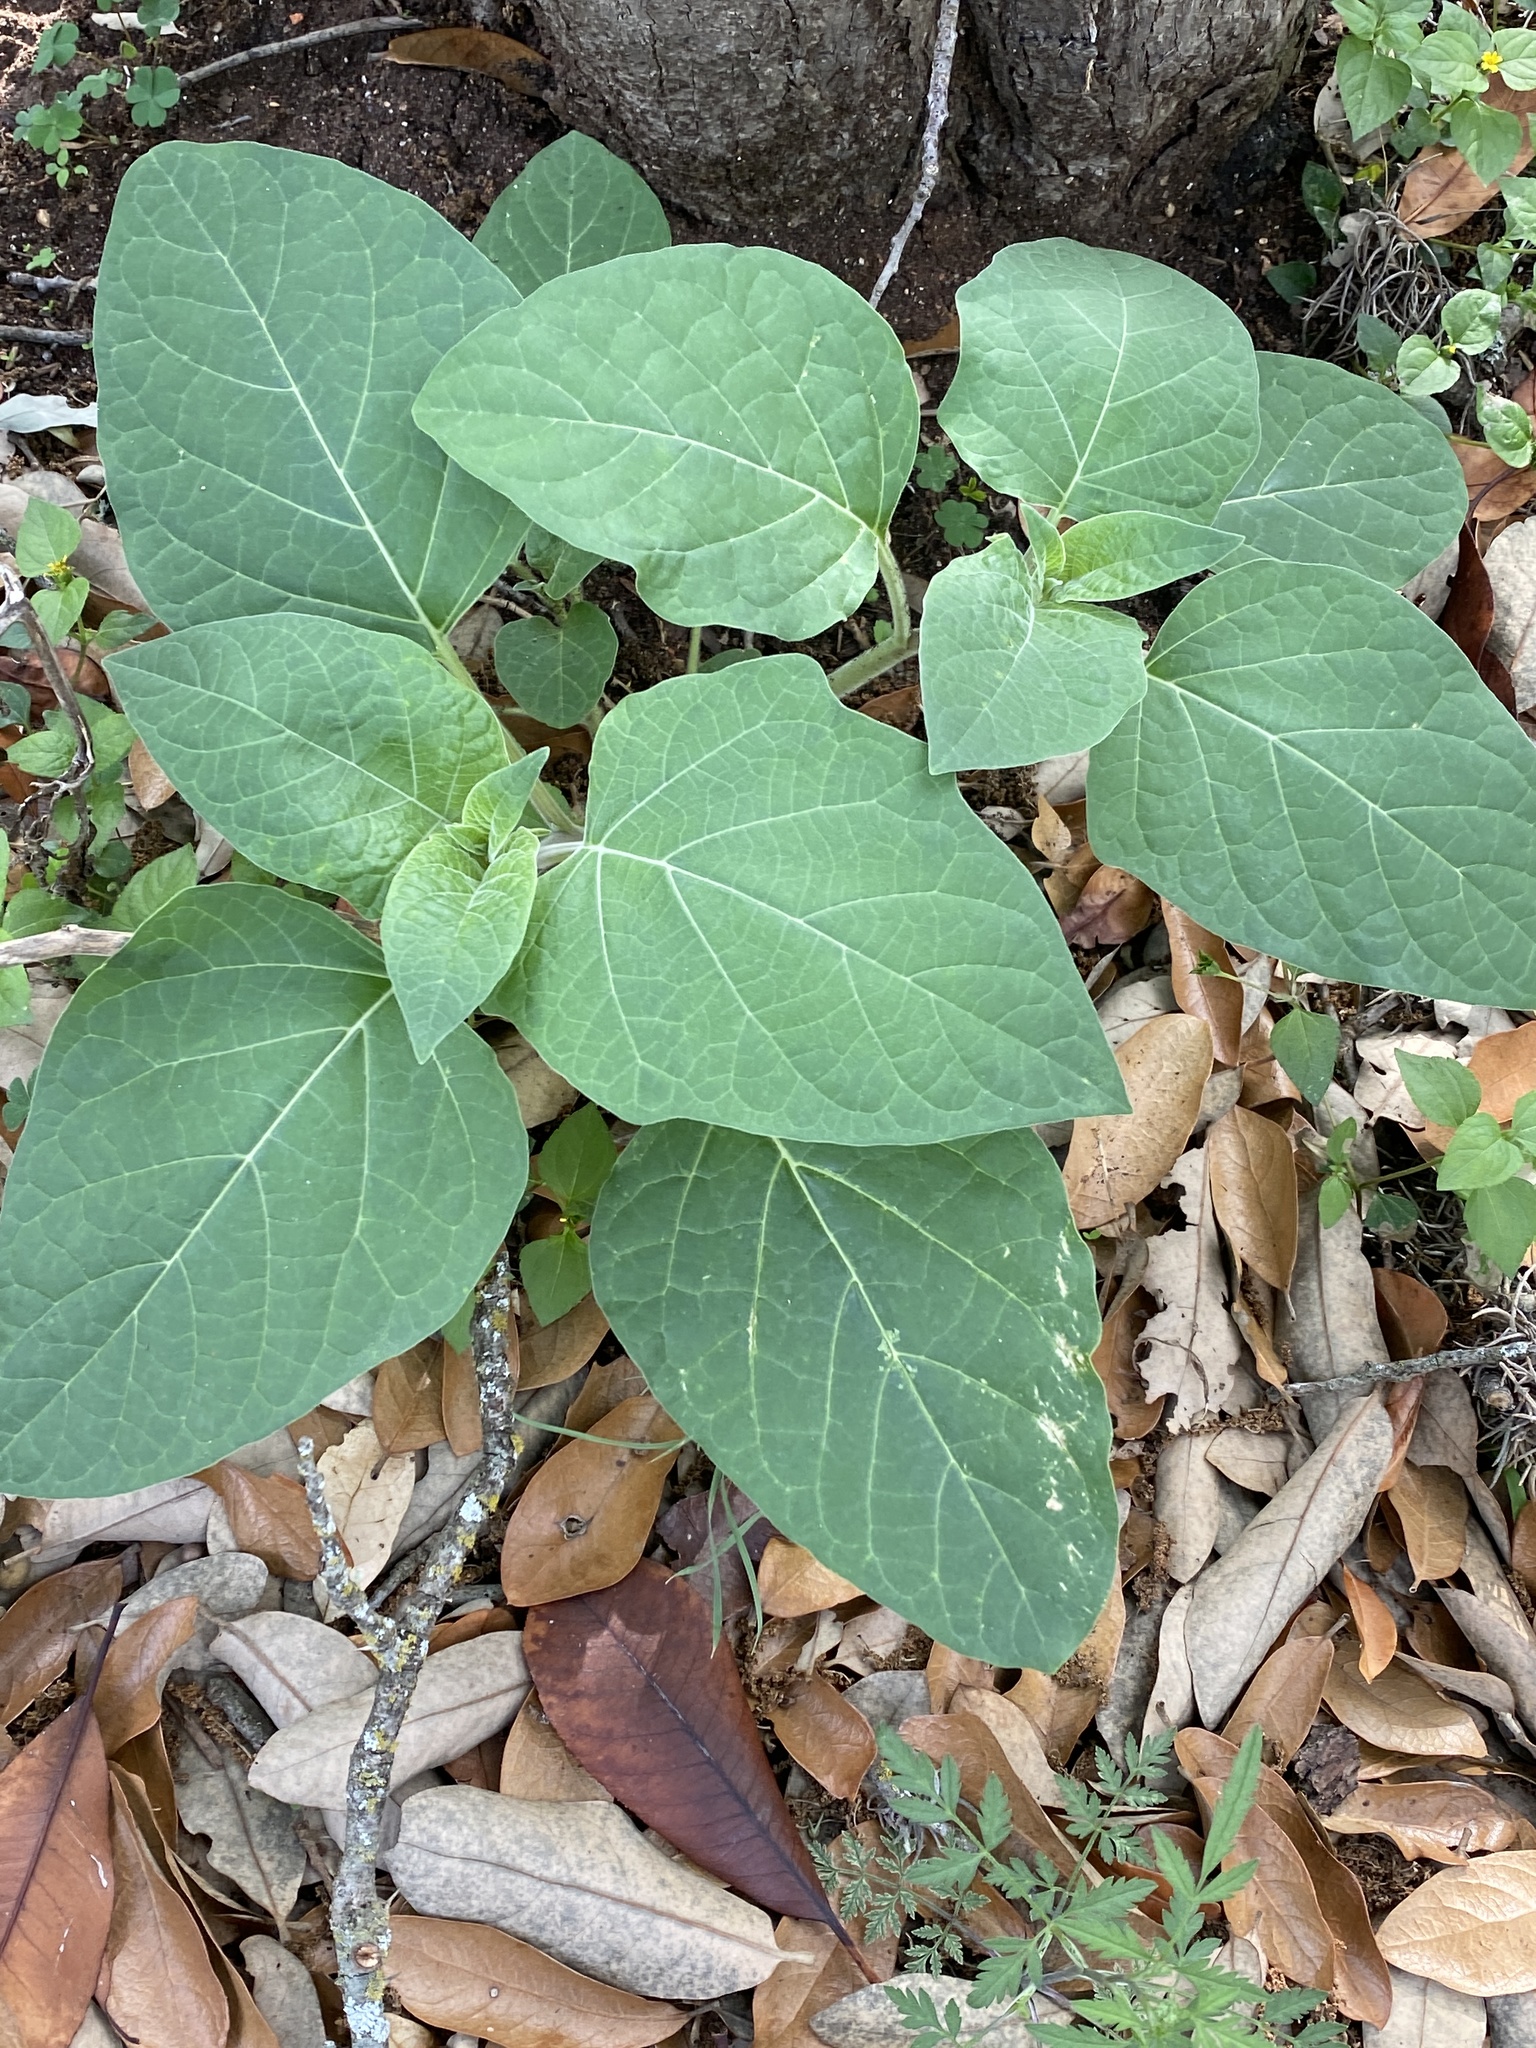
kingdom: Plantae
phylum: Tracheophyta
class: Magnoliopsida
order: Solanales
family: Solanaceae
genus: Datura
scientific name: Datura wrightii
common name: Sacred thorn-apple
